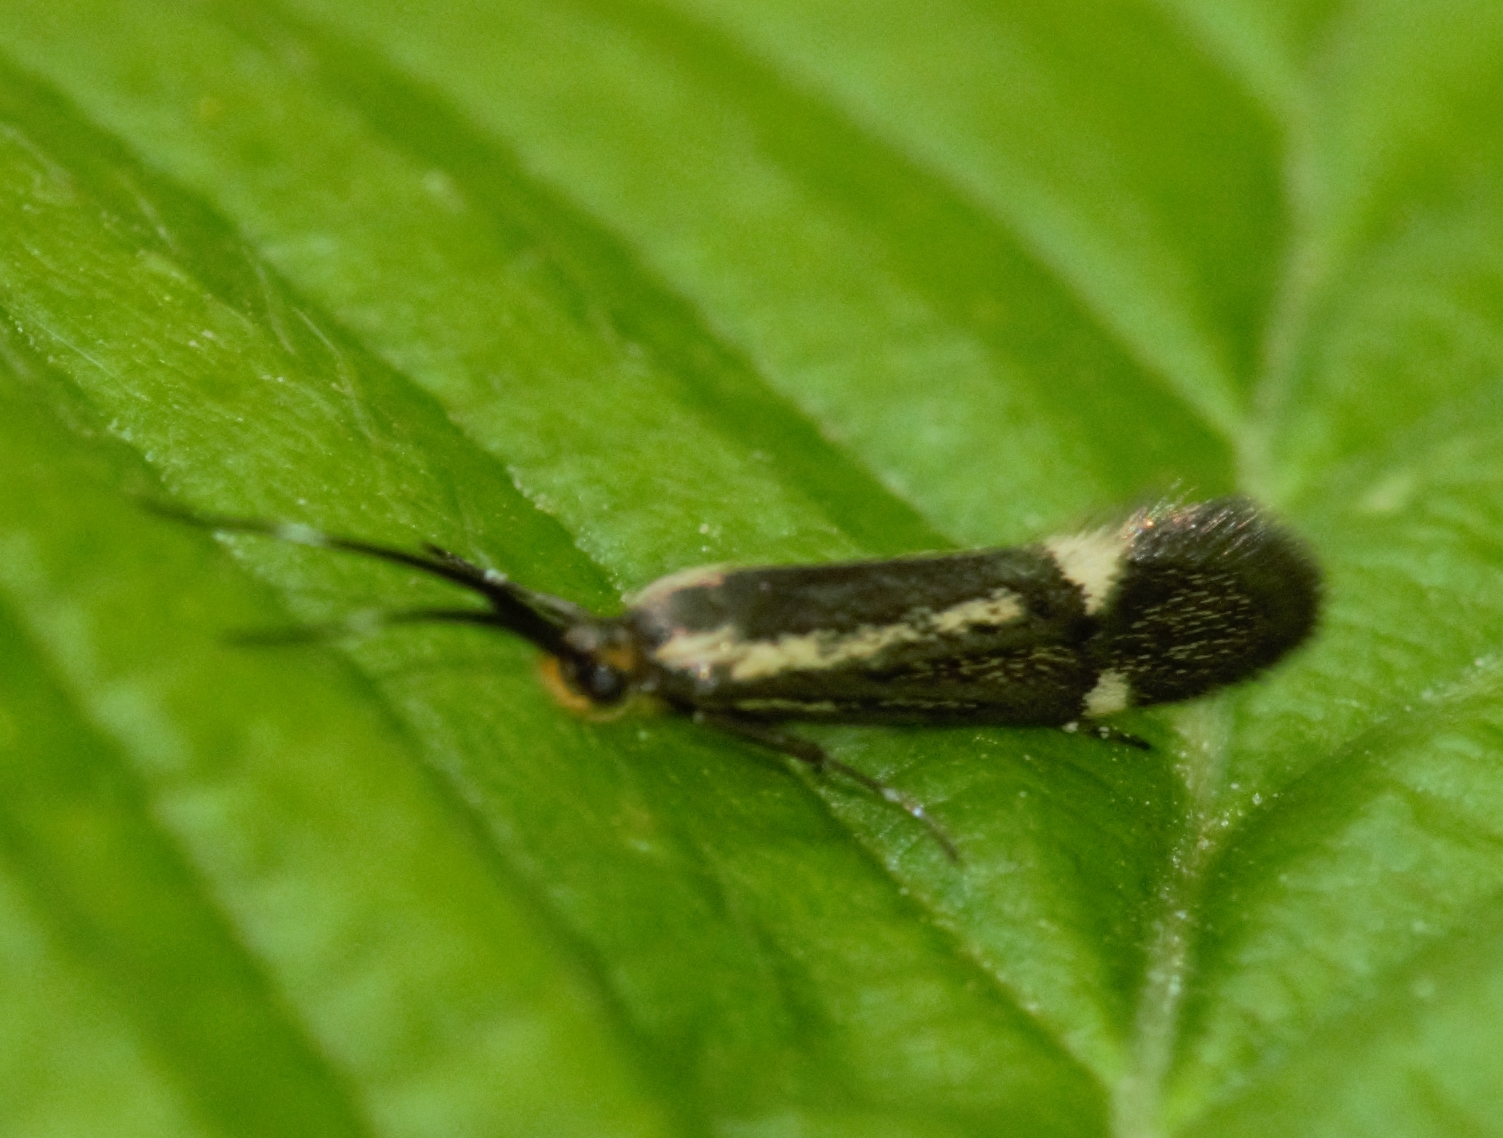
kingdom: Animalia
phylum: Arthropoda
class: Insecta
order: Lepidoptera
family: Oecophoridae
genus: Dafa
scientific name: Dafa Esperia sulphurella
